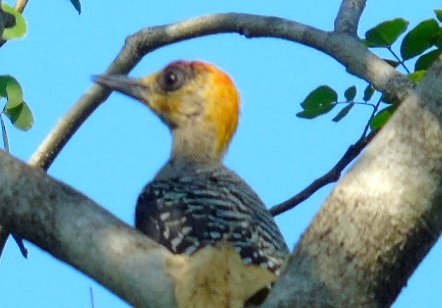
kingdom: Animalia
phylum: Chordata
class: Aves
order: Piciformes
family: Picidae
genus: Melanerpes
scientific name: Melanerpes chrysogenys
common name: Golden-cheeked woodpecker
